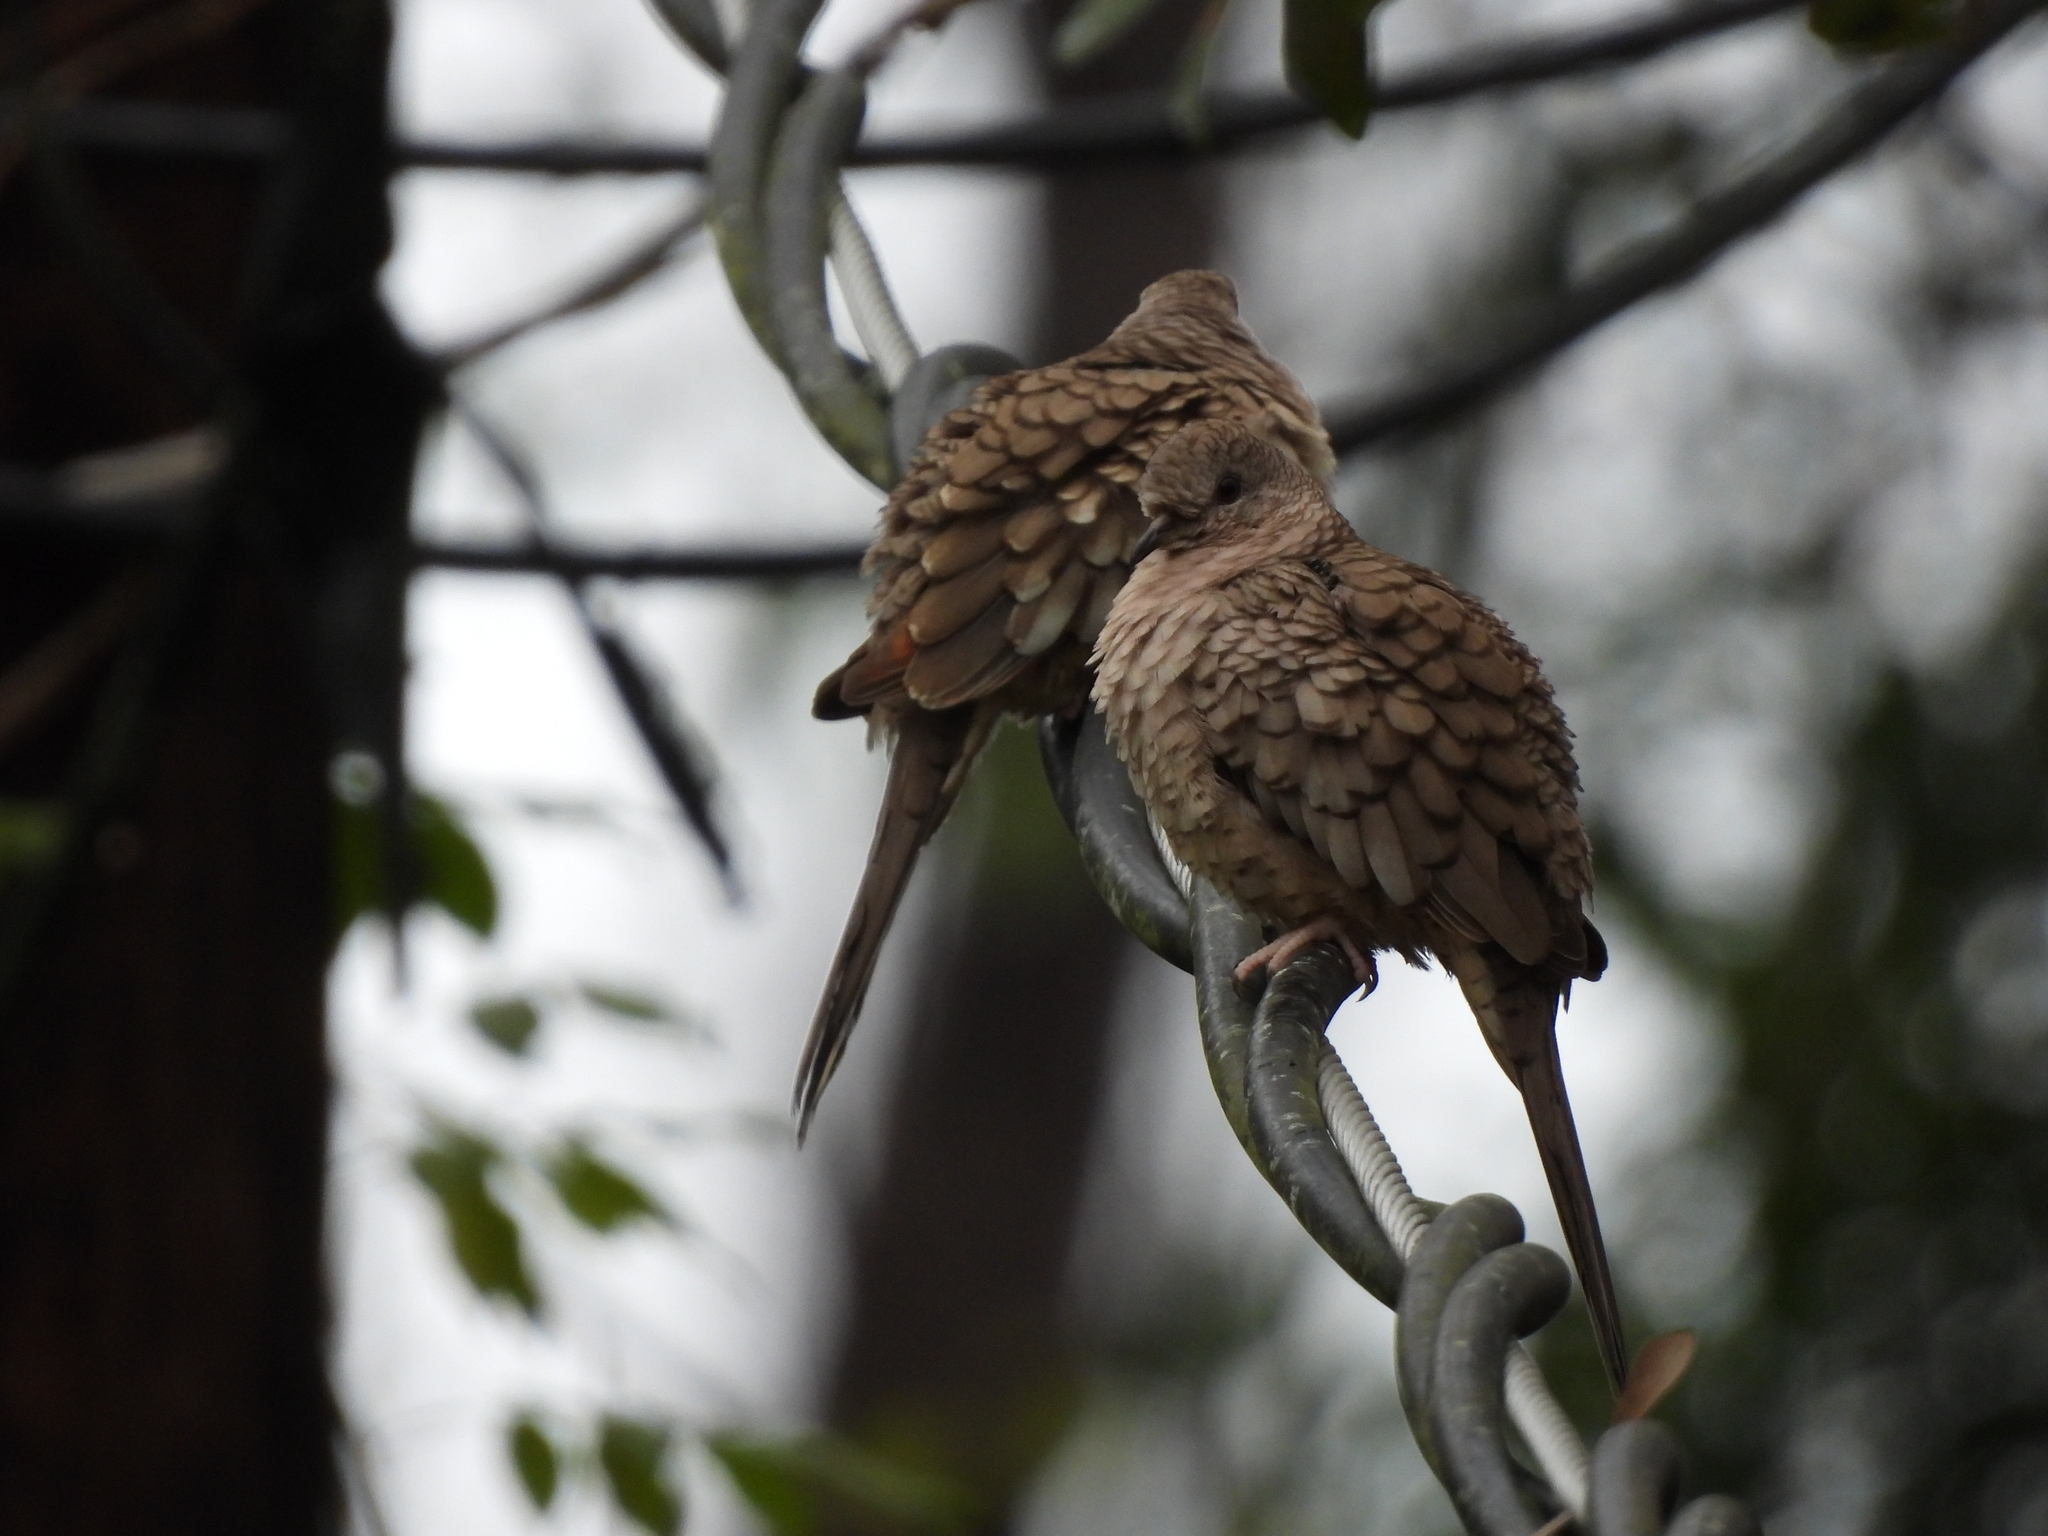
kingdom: Animalia
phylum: Chordata
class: Aves
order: Columbiformes
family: Columbidae
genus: Columbina
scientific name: Columbina inca
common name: Inca dove
